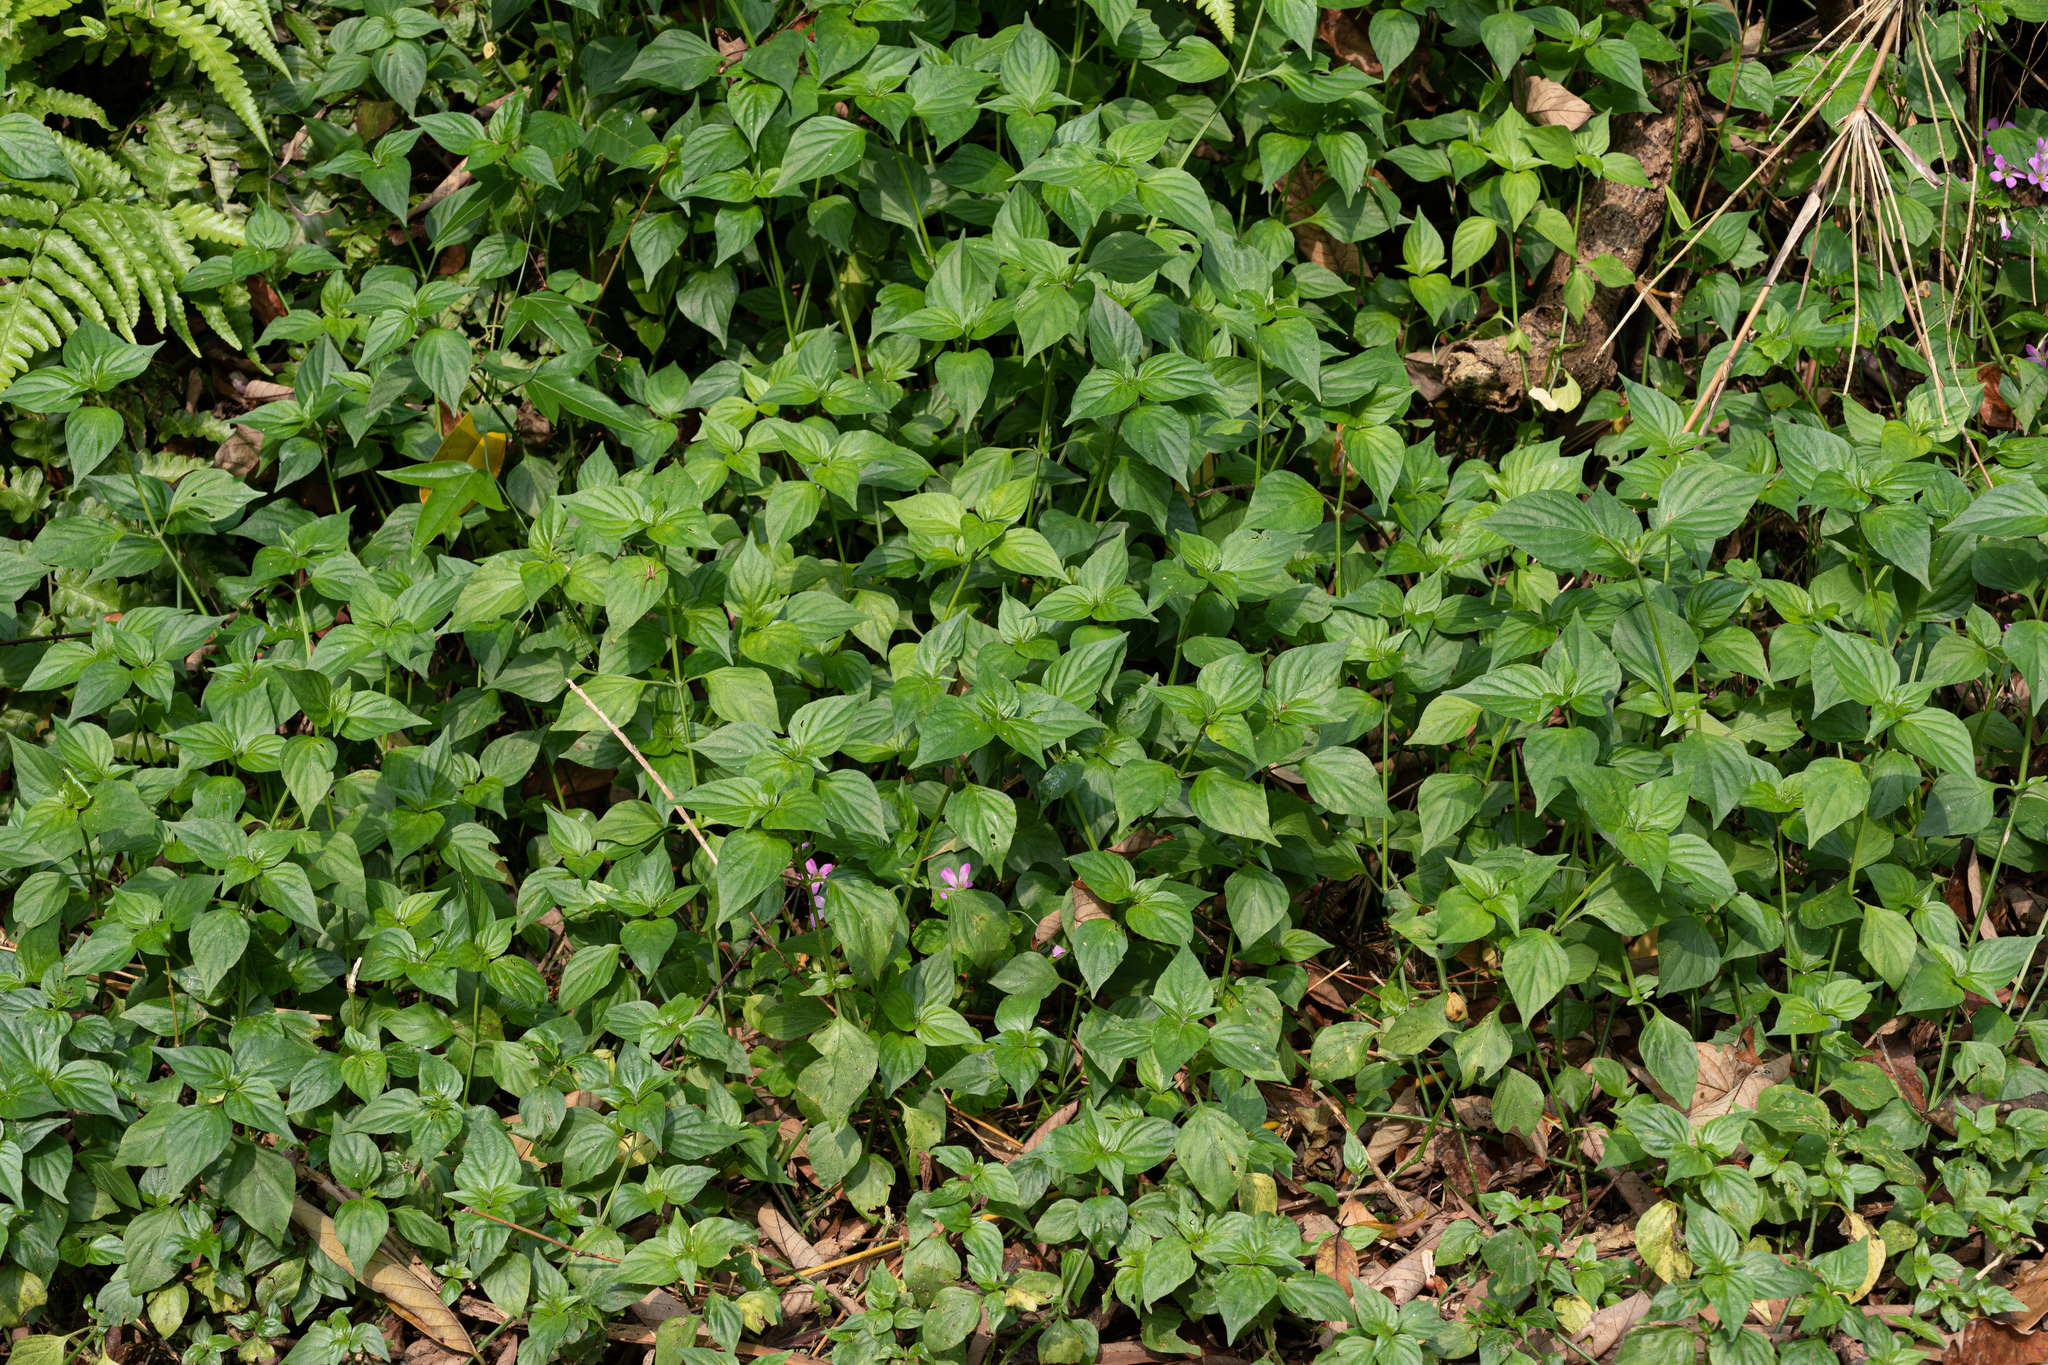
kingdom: Plantae
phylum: Tracheophyta
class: Magnoliopsida
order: Lamiales
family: Acanthaceae
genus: Dicliptera
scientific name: Dicliptera chinensis
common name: Chinese foldwing
